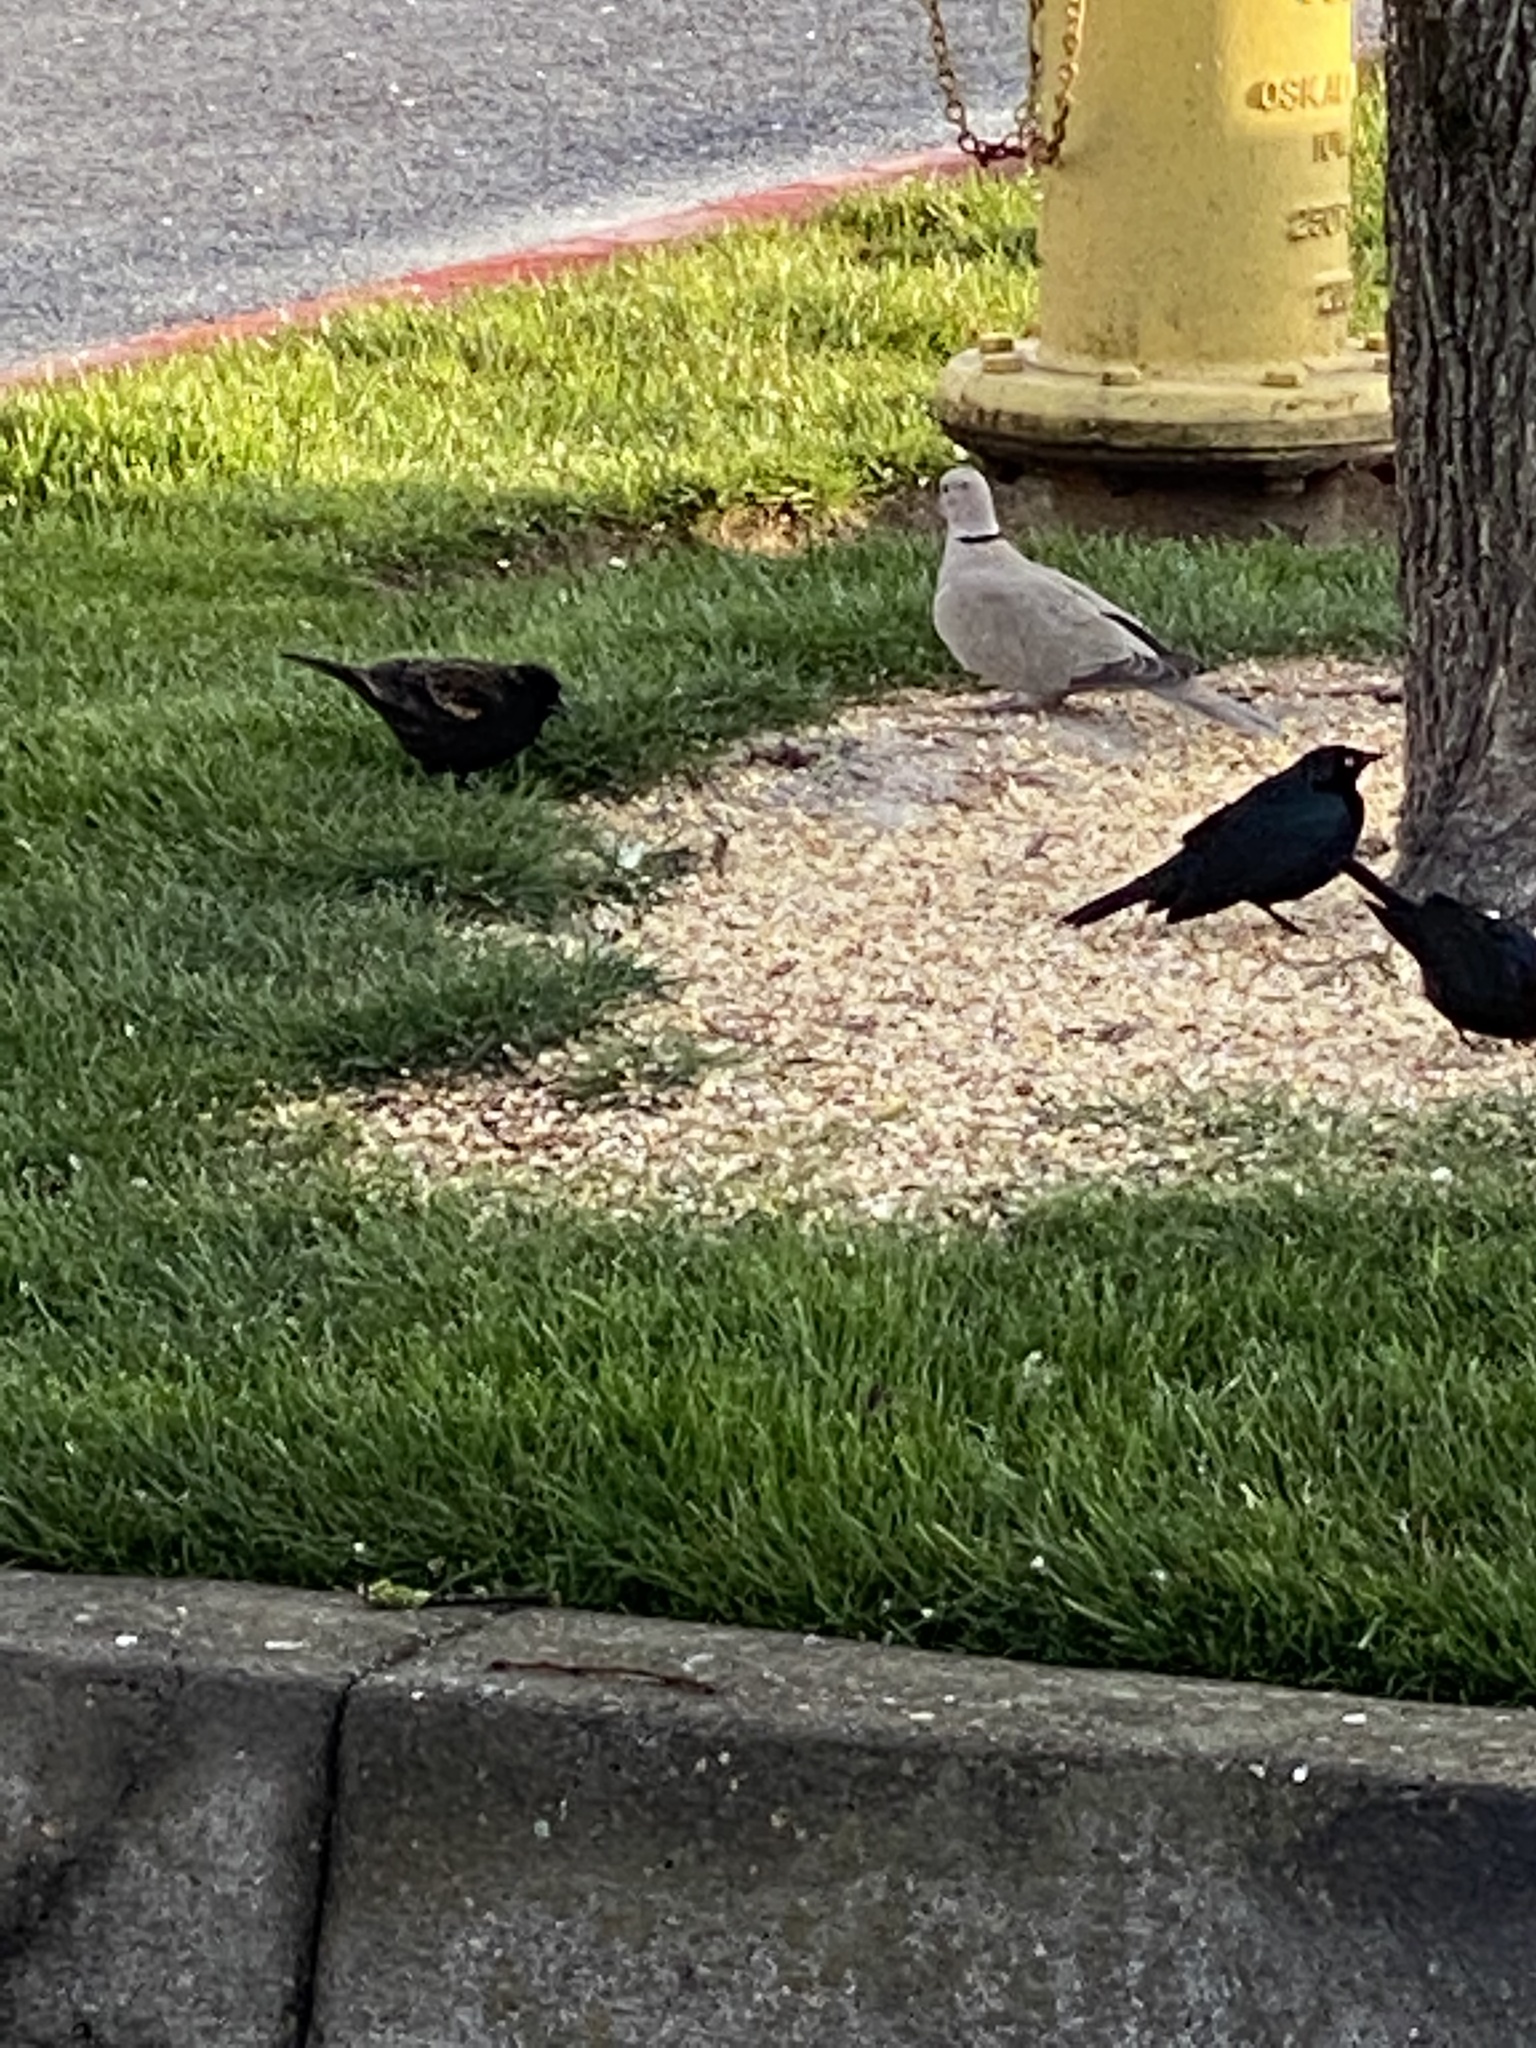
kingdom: Animalia
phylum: Chordata
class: Aves
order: Columbiformes
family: Columbidae
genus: Streptopelia
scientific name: Streptopelia decaocto
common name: Eurasian collared dove
